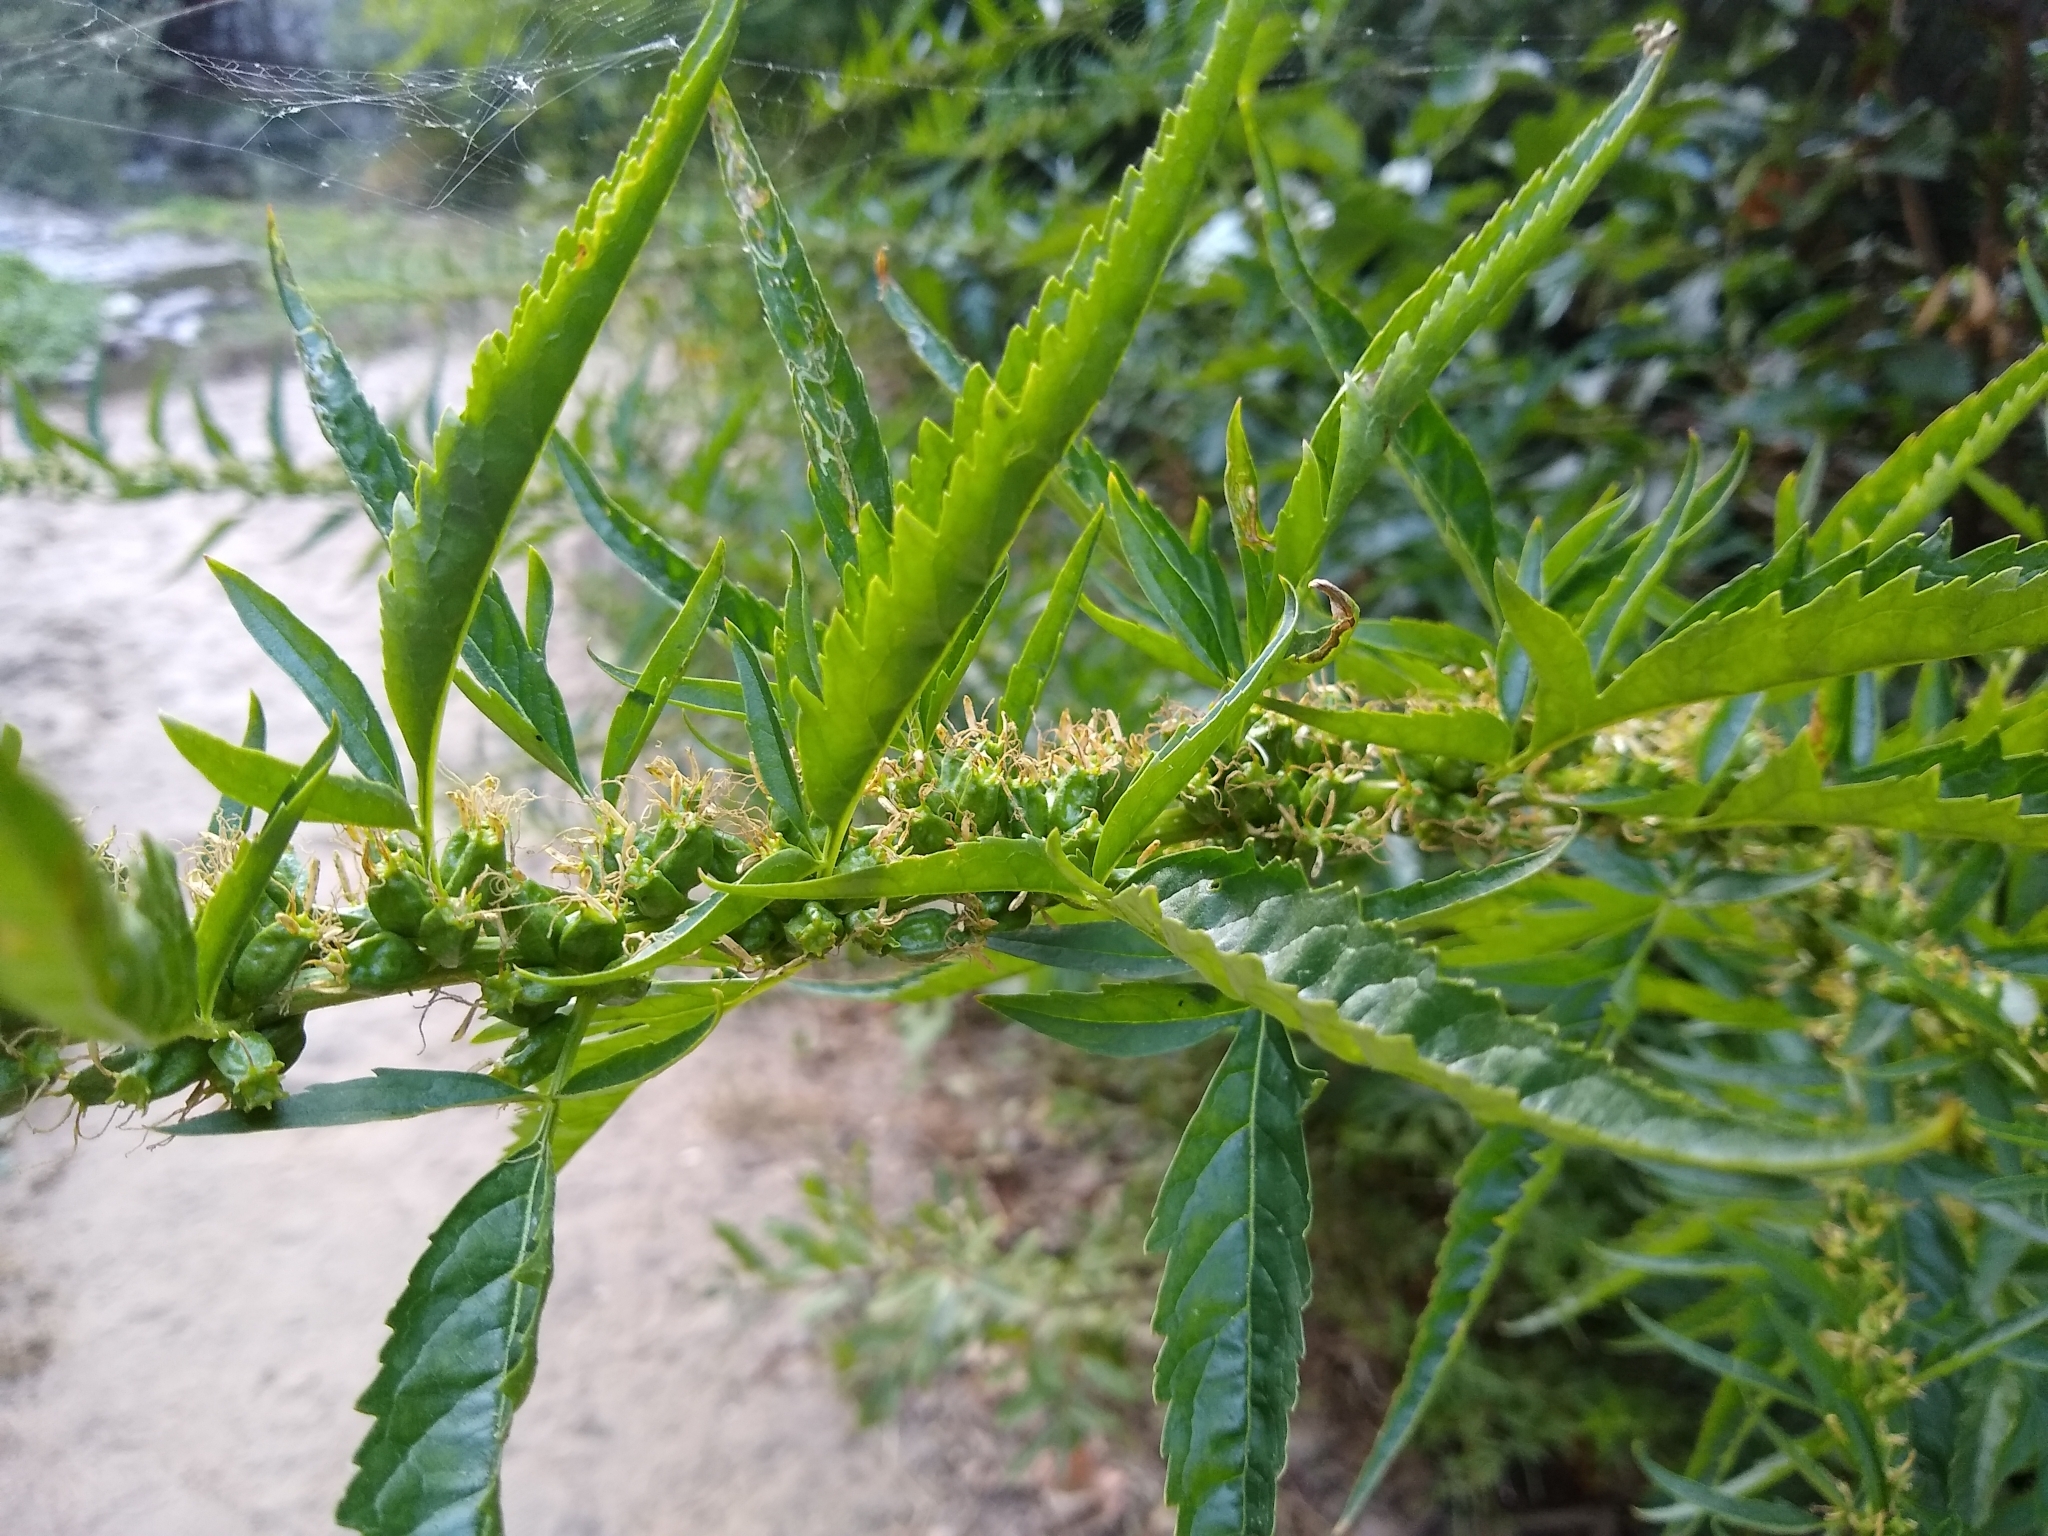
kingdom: Plantae
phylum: Tracheophyta
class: Magnoliopsida
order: Cucurbitales
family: Datiscaceae
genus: Datisca
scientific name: Datisca glomerata
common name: Durango-root
